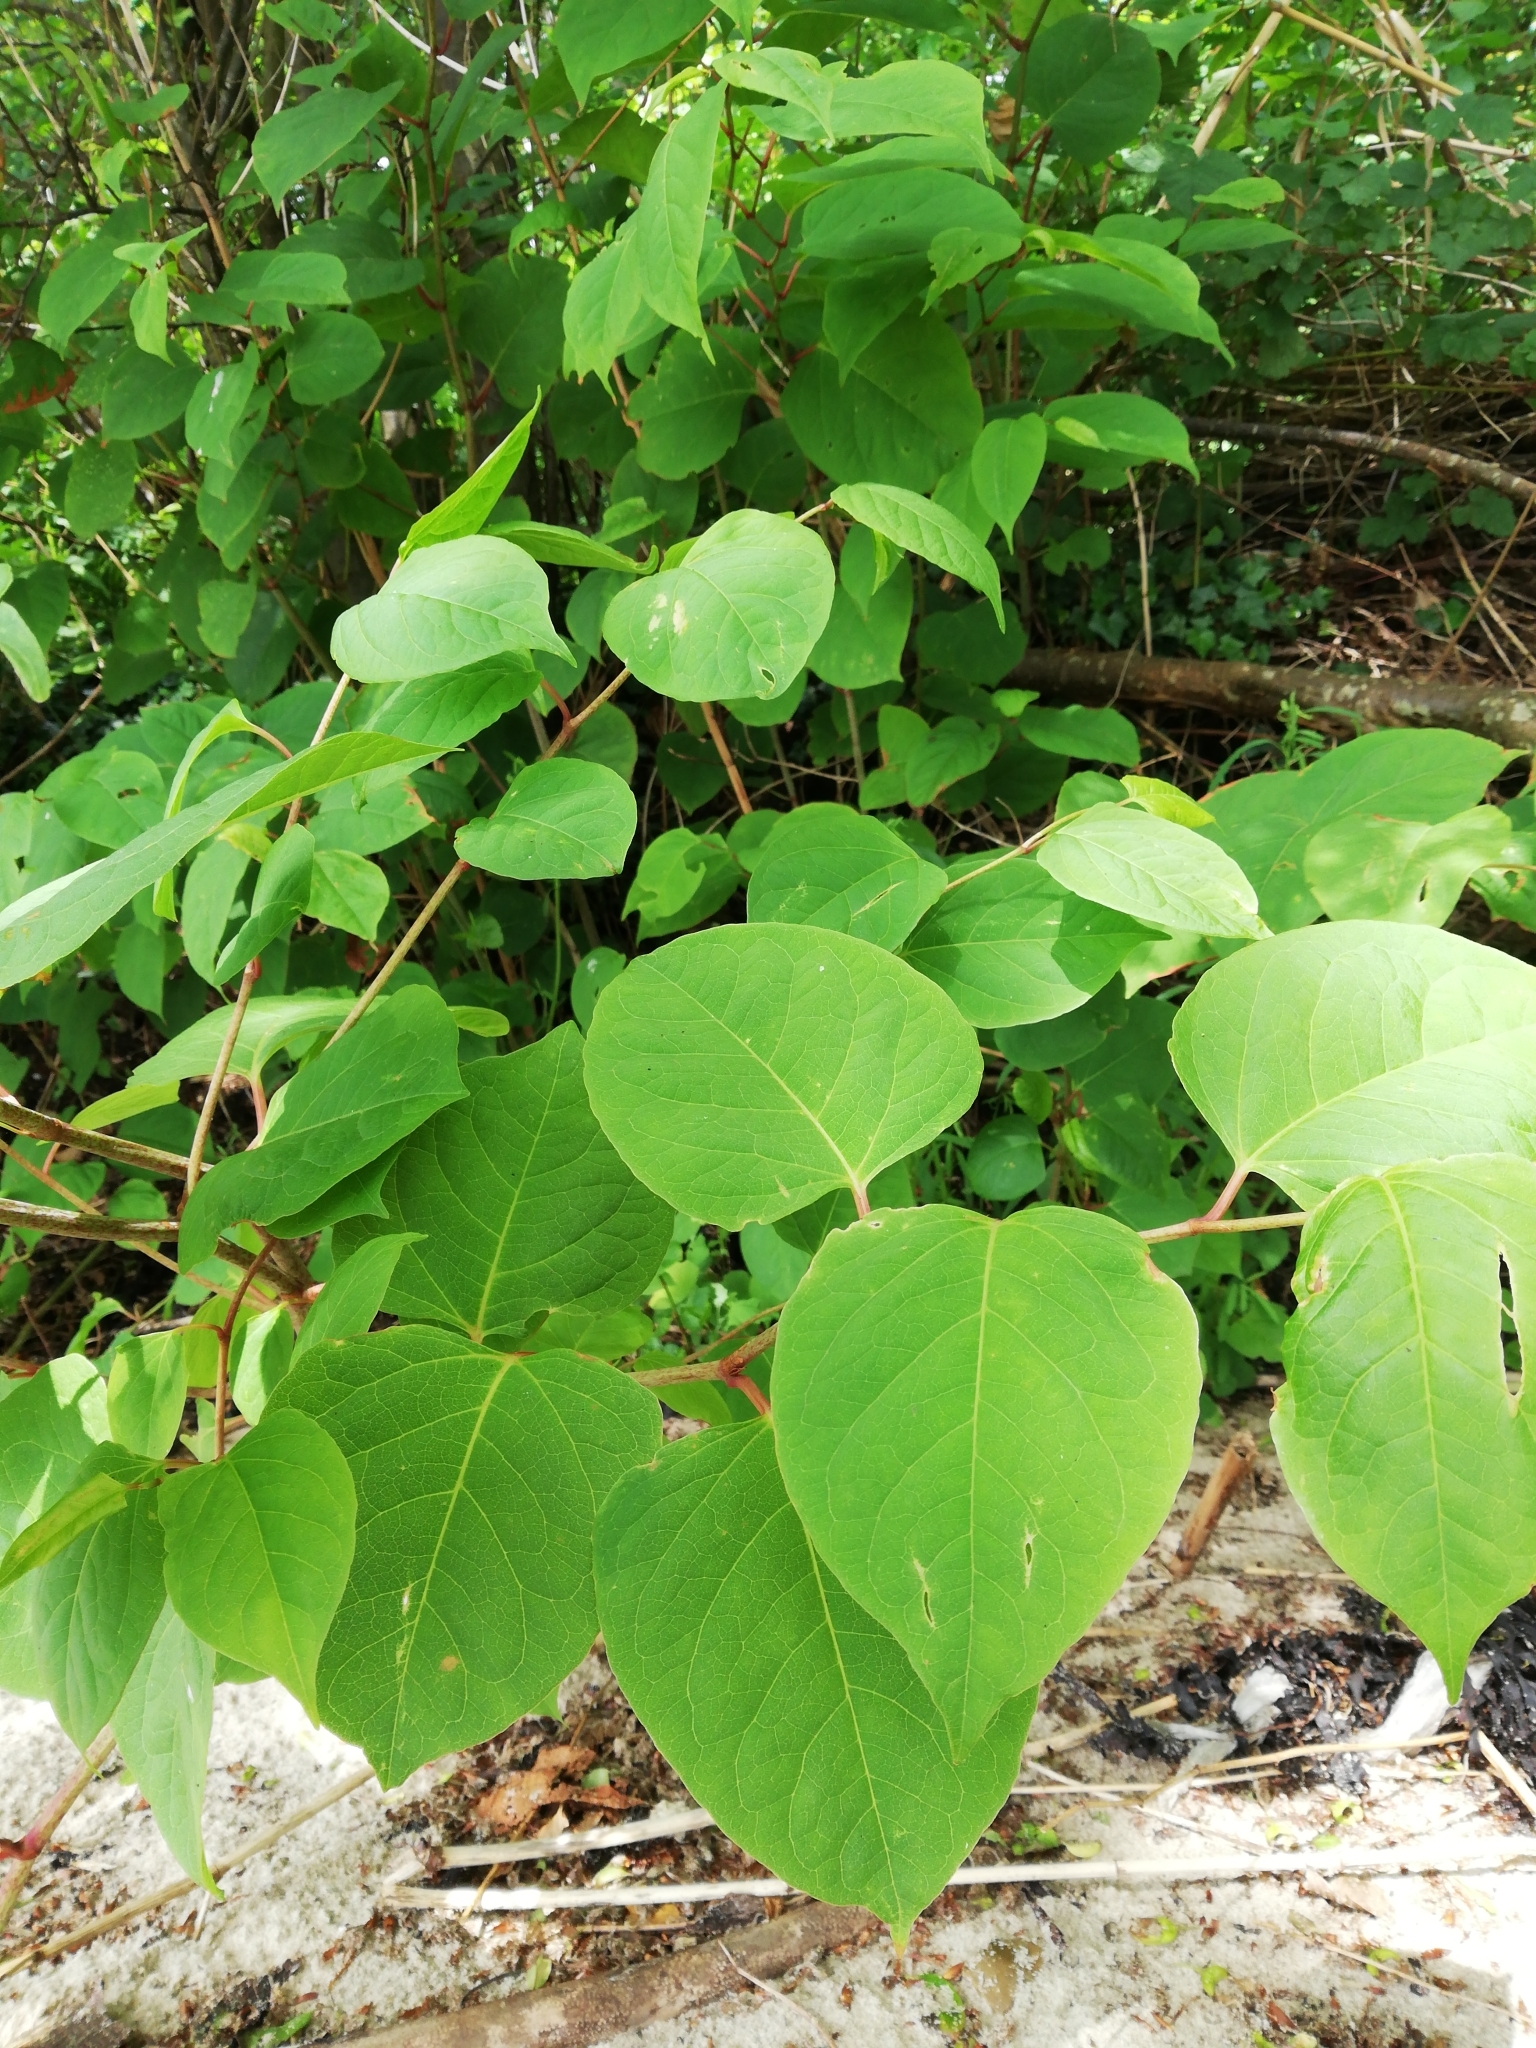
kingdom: Plantae
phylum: Tracheophyta
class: Magnoliopsida
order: Caryophyllales
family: Polygonaceae
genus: Reynoutria
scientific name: Reynoutria japonica
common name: Japanese knotweed
